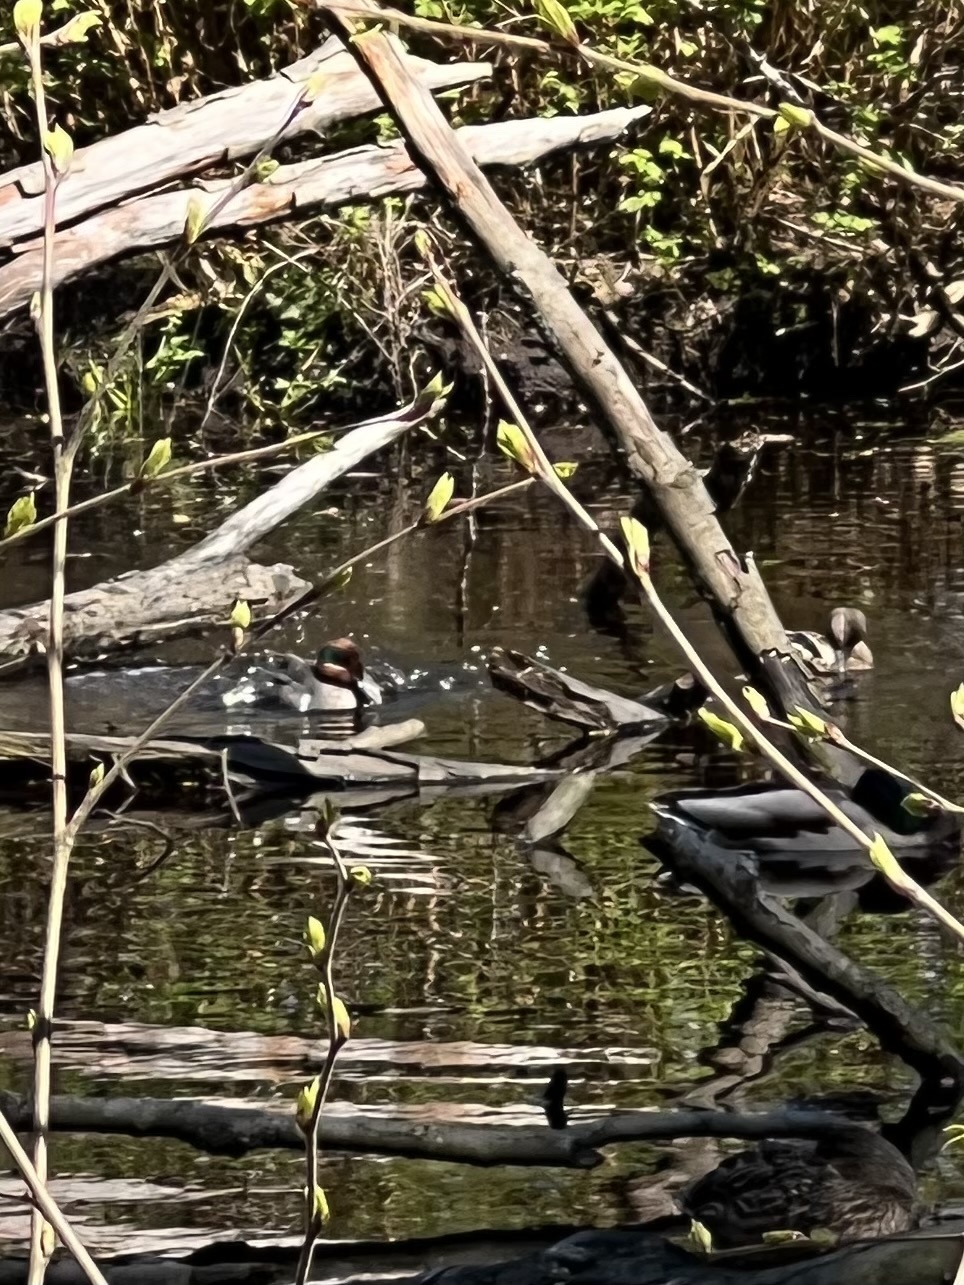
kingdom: Animalia
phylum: Chordata
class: Aves
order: Anseriformes
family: Anatidae
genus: Anas
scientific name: Anas carolinensis
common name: Green-winged teal
